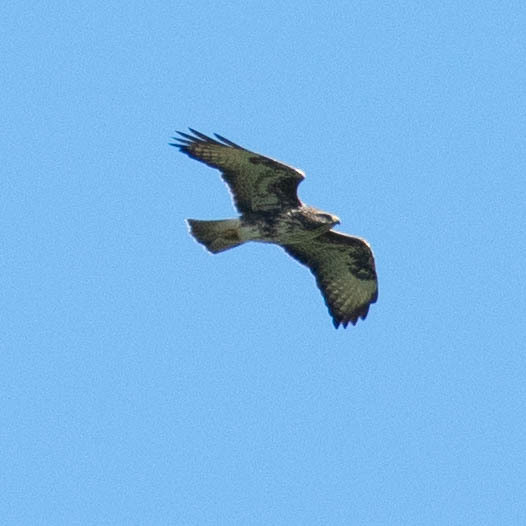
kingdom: Animalia
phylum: Chordata
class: Aves
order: Accipitriformes
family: Accipitridae
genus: Buteo
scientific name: Buteo buteo
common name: Common buzzard
